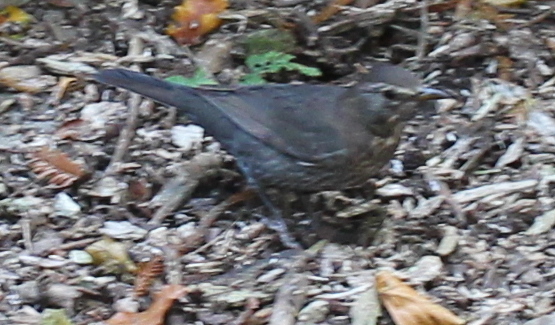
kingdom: Animalia
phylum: Chordata
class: Aves
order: Passeriformes
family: Turdidae
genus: Turdus
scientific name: Turdus merula
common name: Common blackbird
